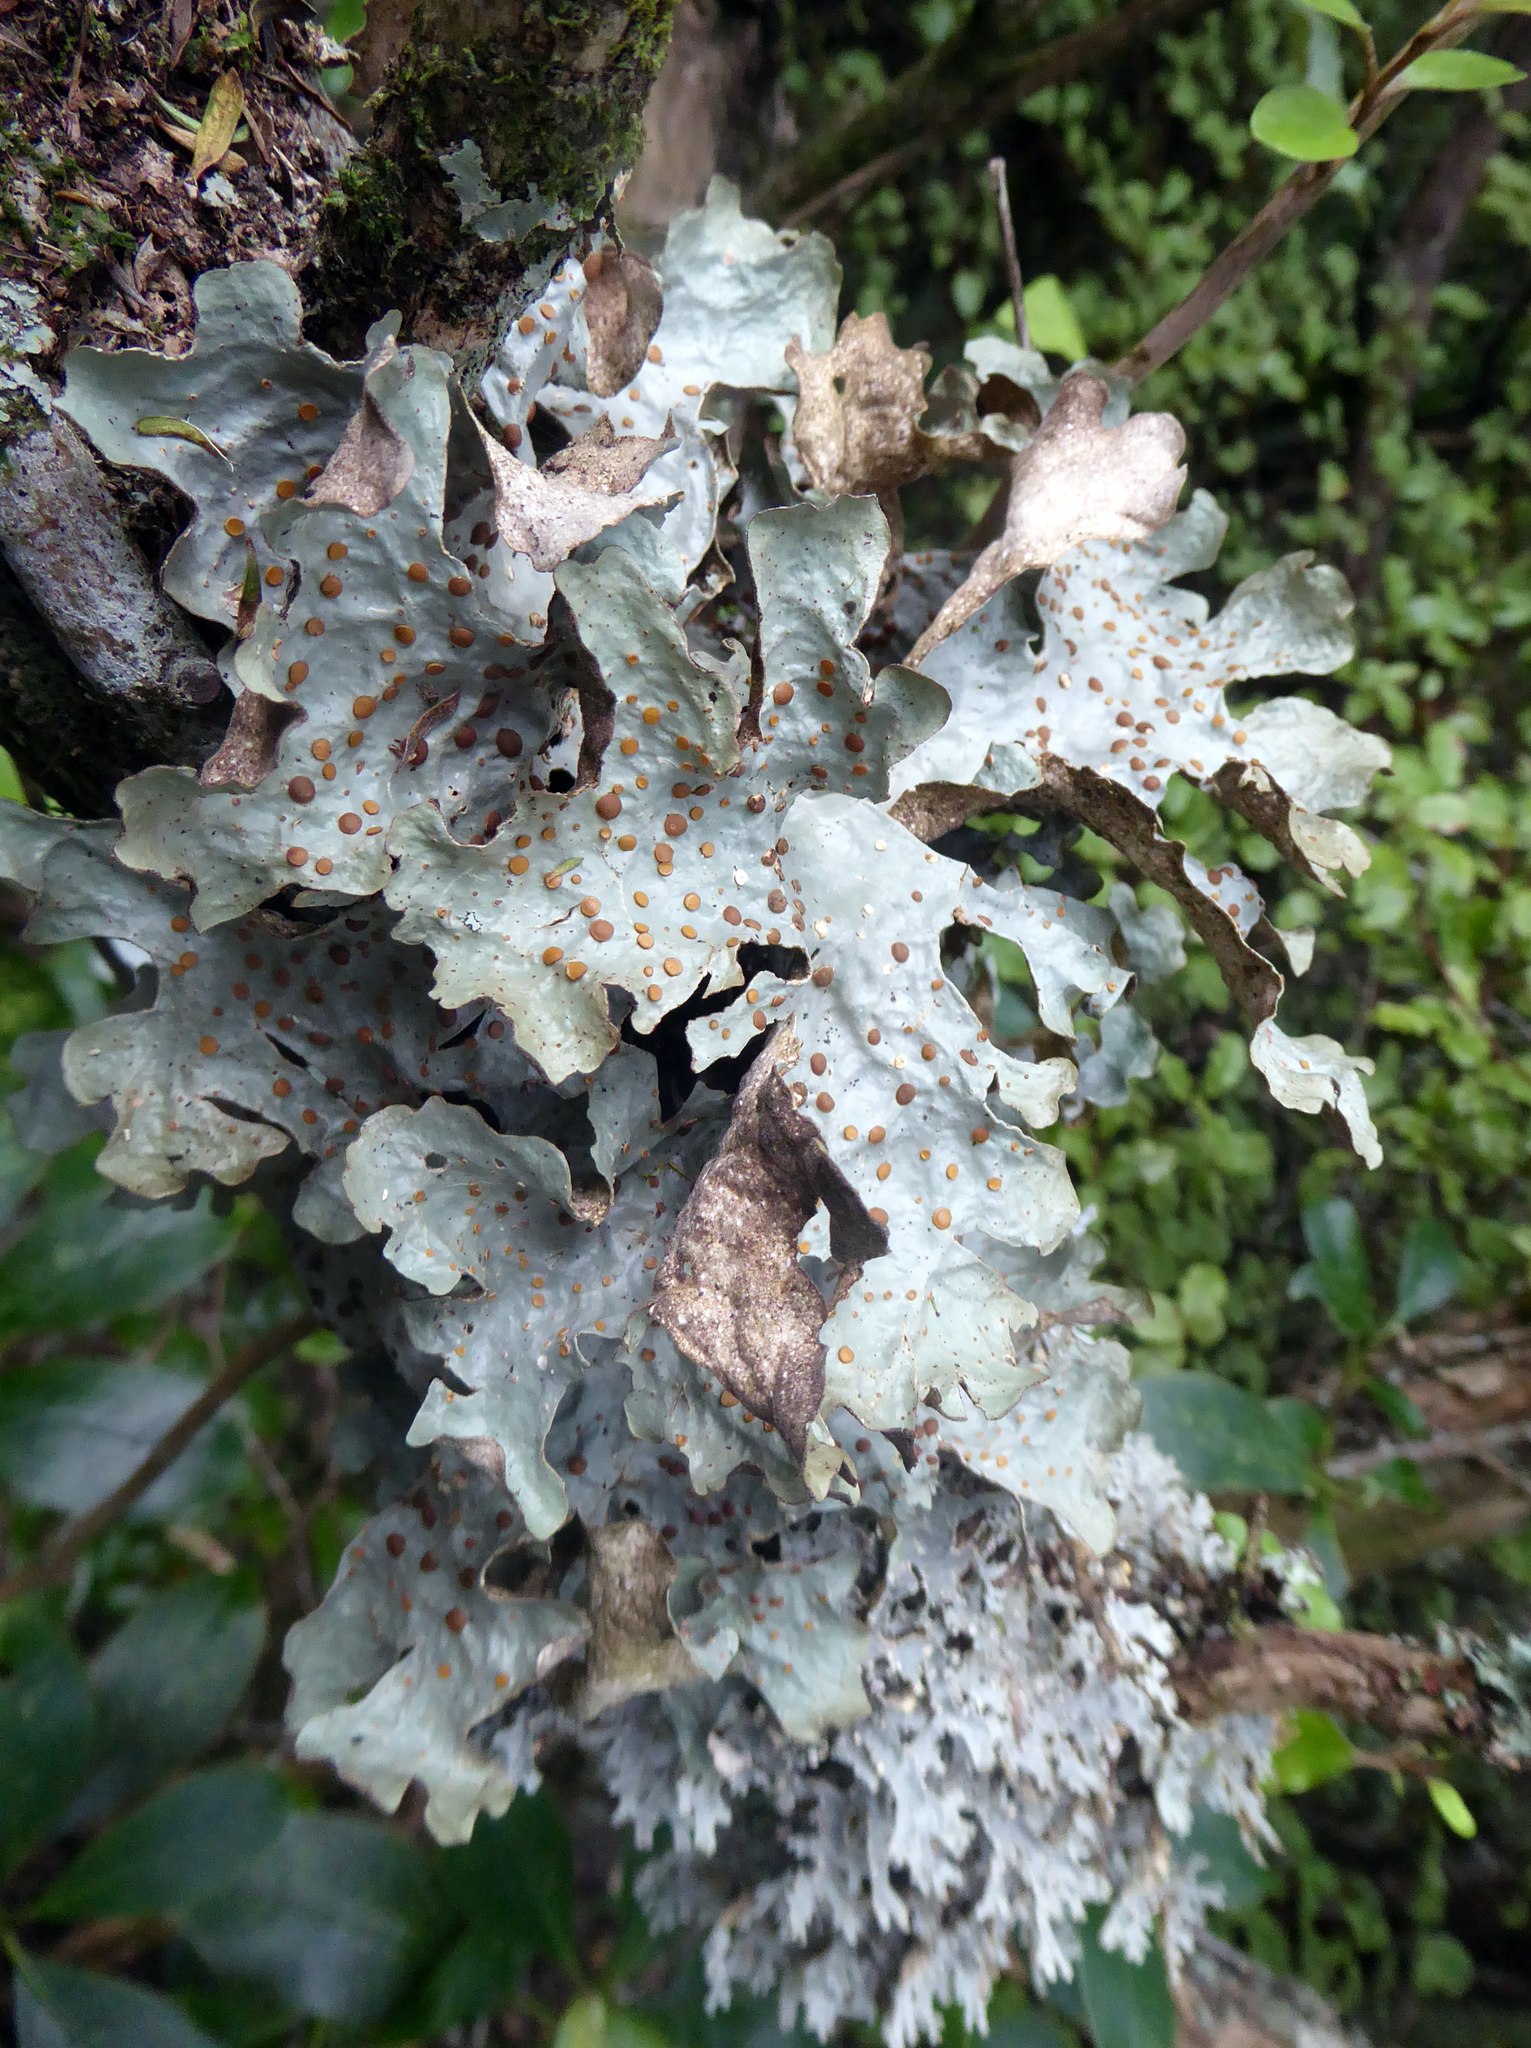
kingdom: Fungi
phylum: Ascomycota
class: Lecanoromycetes
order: Peltigerales
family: Lobariaceae
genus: Sticta
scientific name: Sticta latifrons
